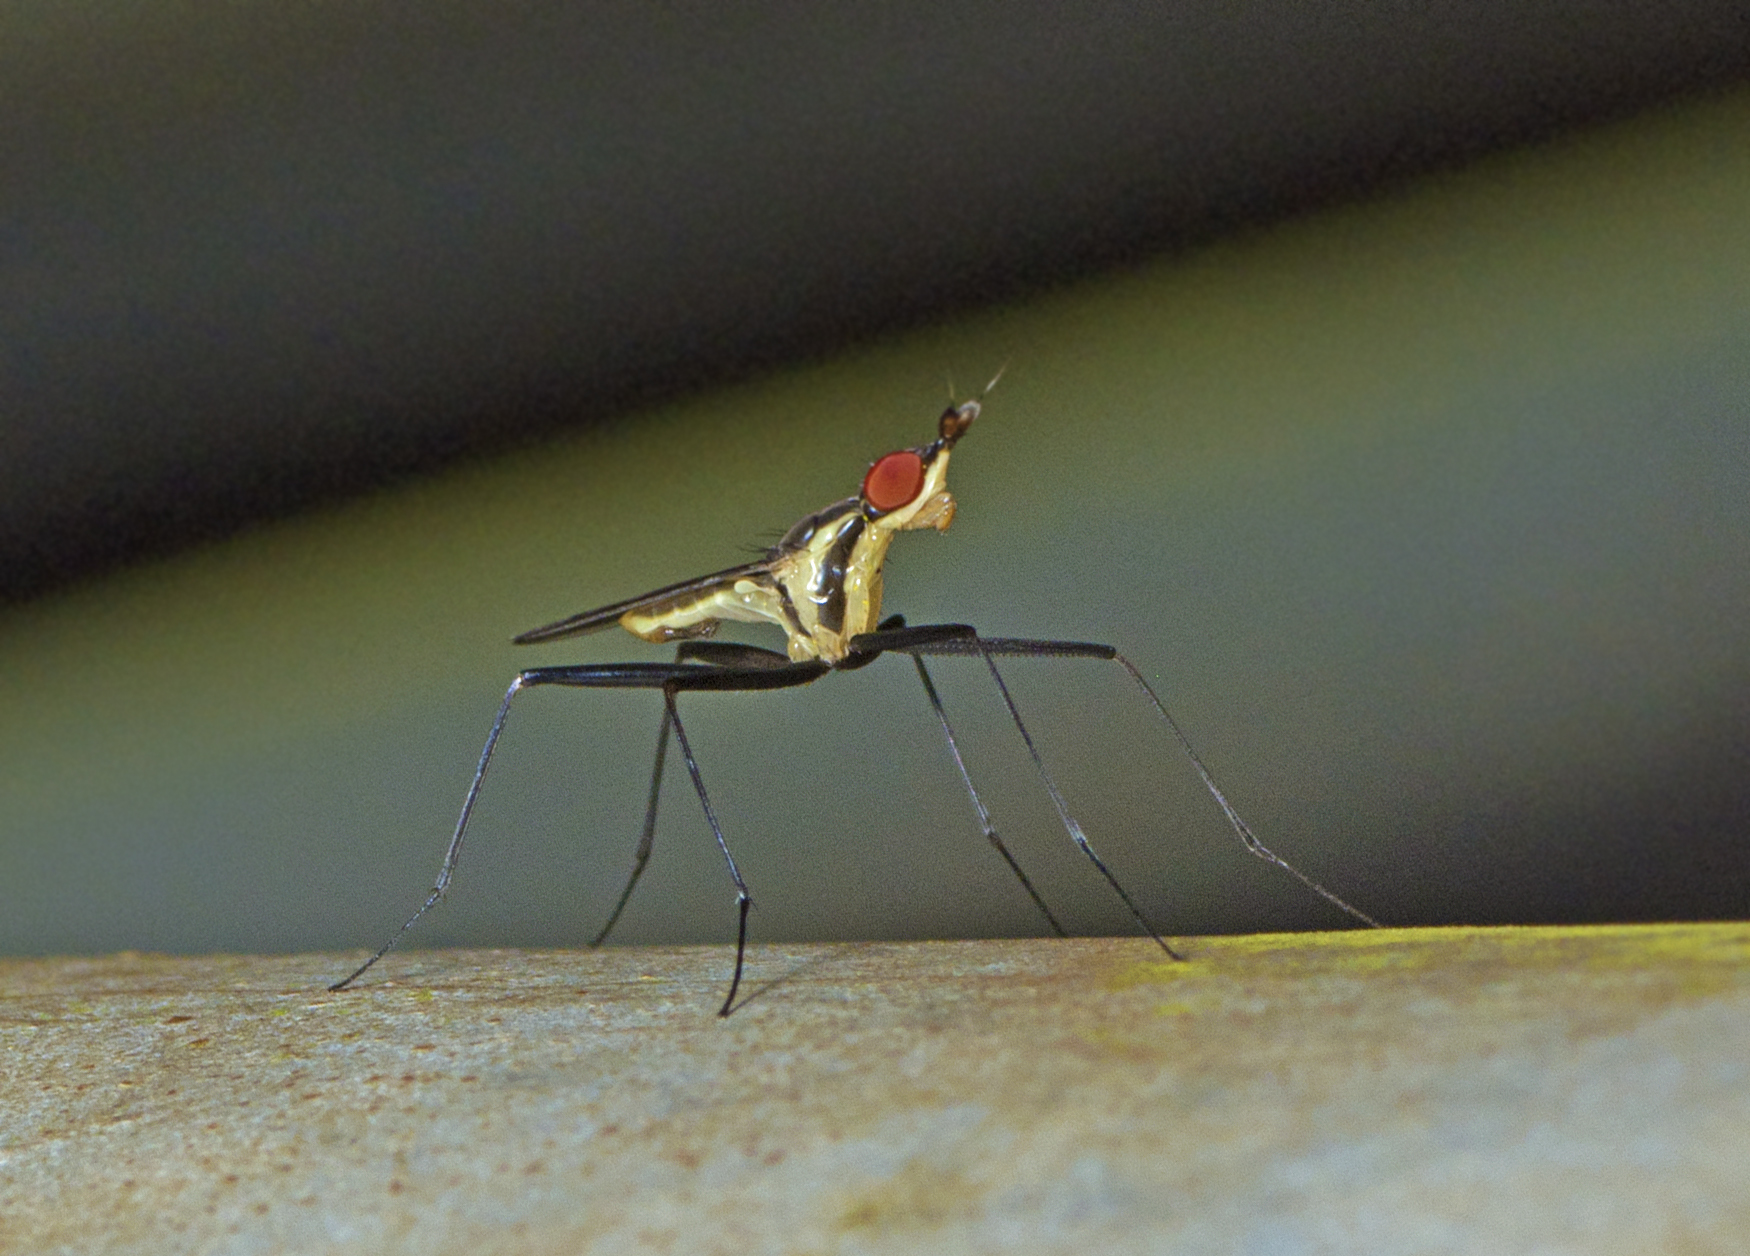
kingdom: Animalia
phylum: Arthropoda
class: Insecta
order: Diptera
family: Neriidae
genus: Telostylinus
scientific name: Telostylinus lineolatus
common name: Banana stalk fly
